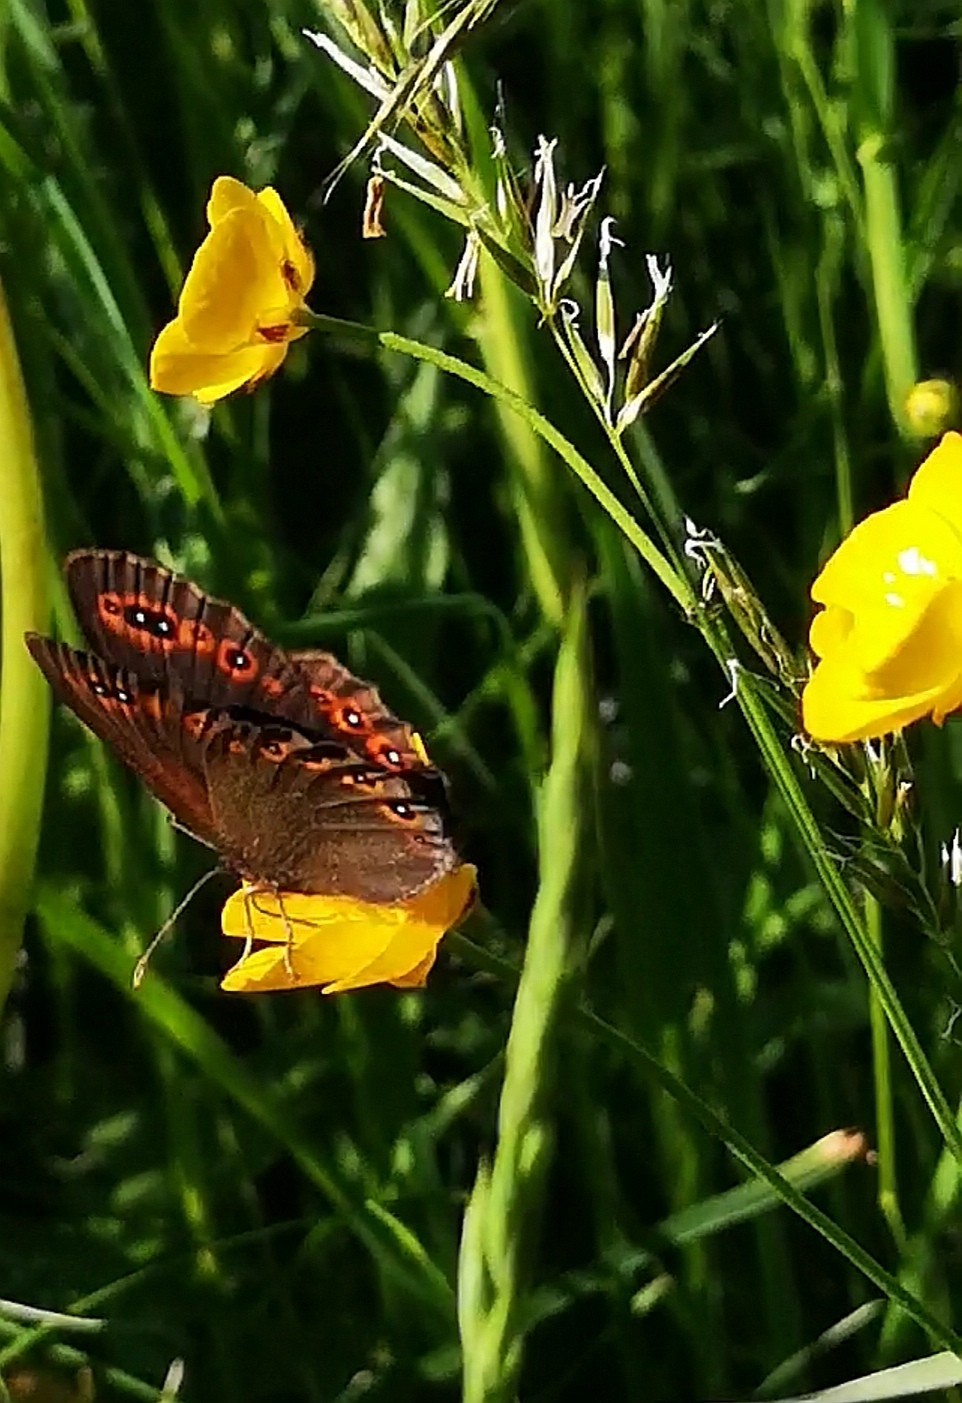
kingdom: Animalia
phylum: Arthropoda
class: Insecta
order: Lepidoptera
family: Nymphalidae
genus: Erebia
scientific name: Erebia medusa
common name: Woodland ringlet
